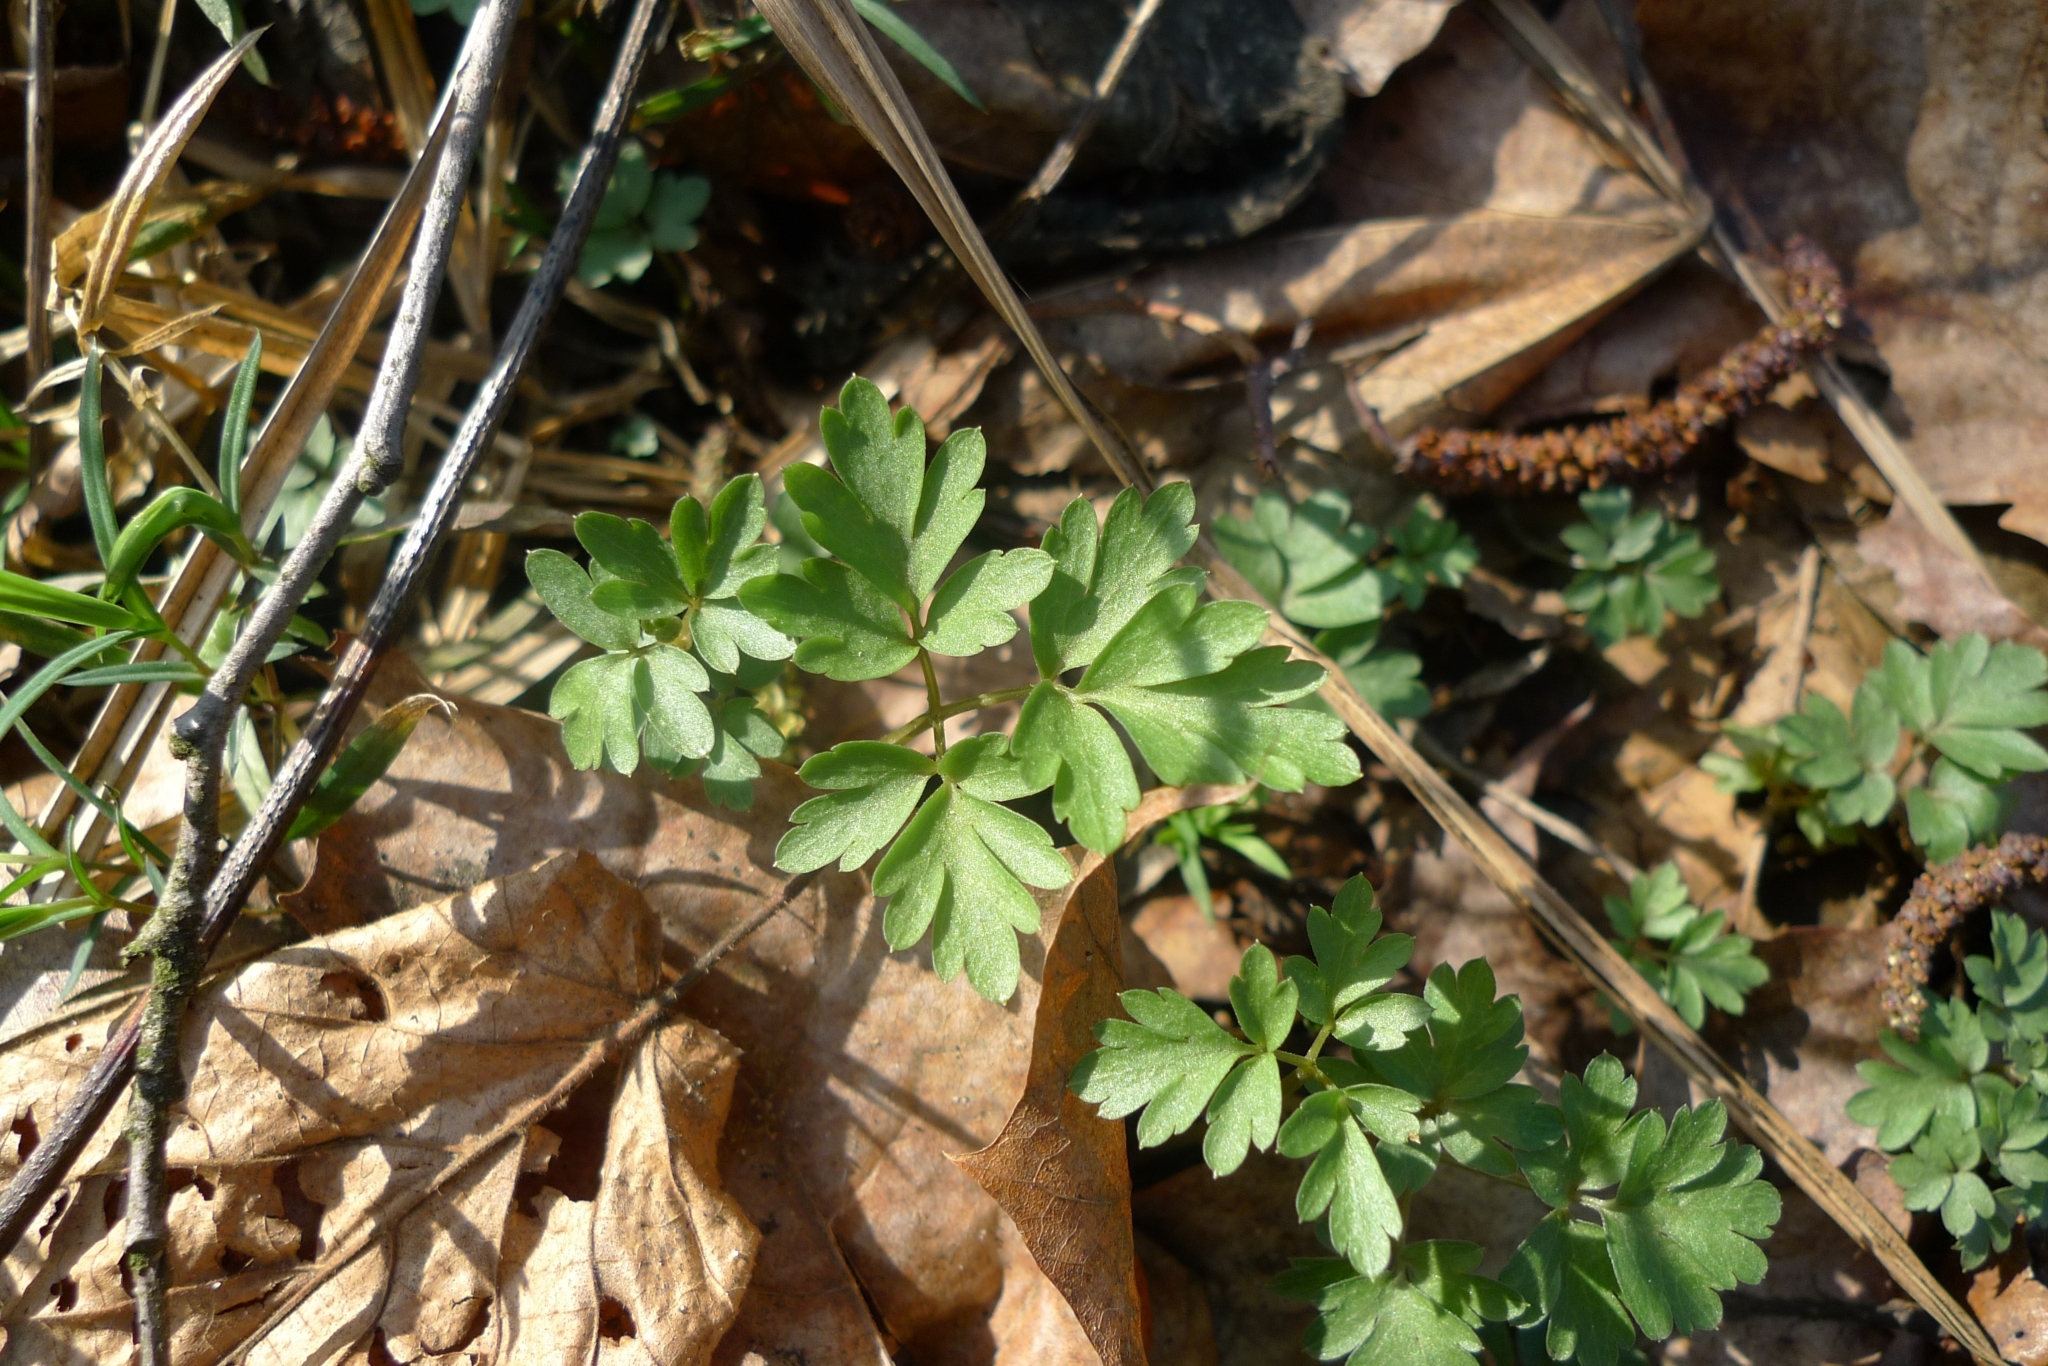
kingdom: Plantae
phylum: Tracheophyta
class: Magnoliopsida
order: Dipsacales
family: Viburnaceae
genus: Adoxa
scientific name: Adoxa moschatellina
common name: Moschatel
